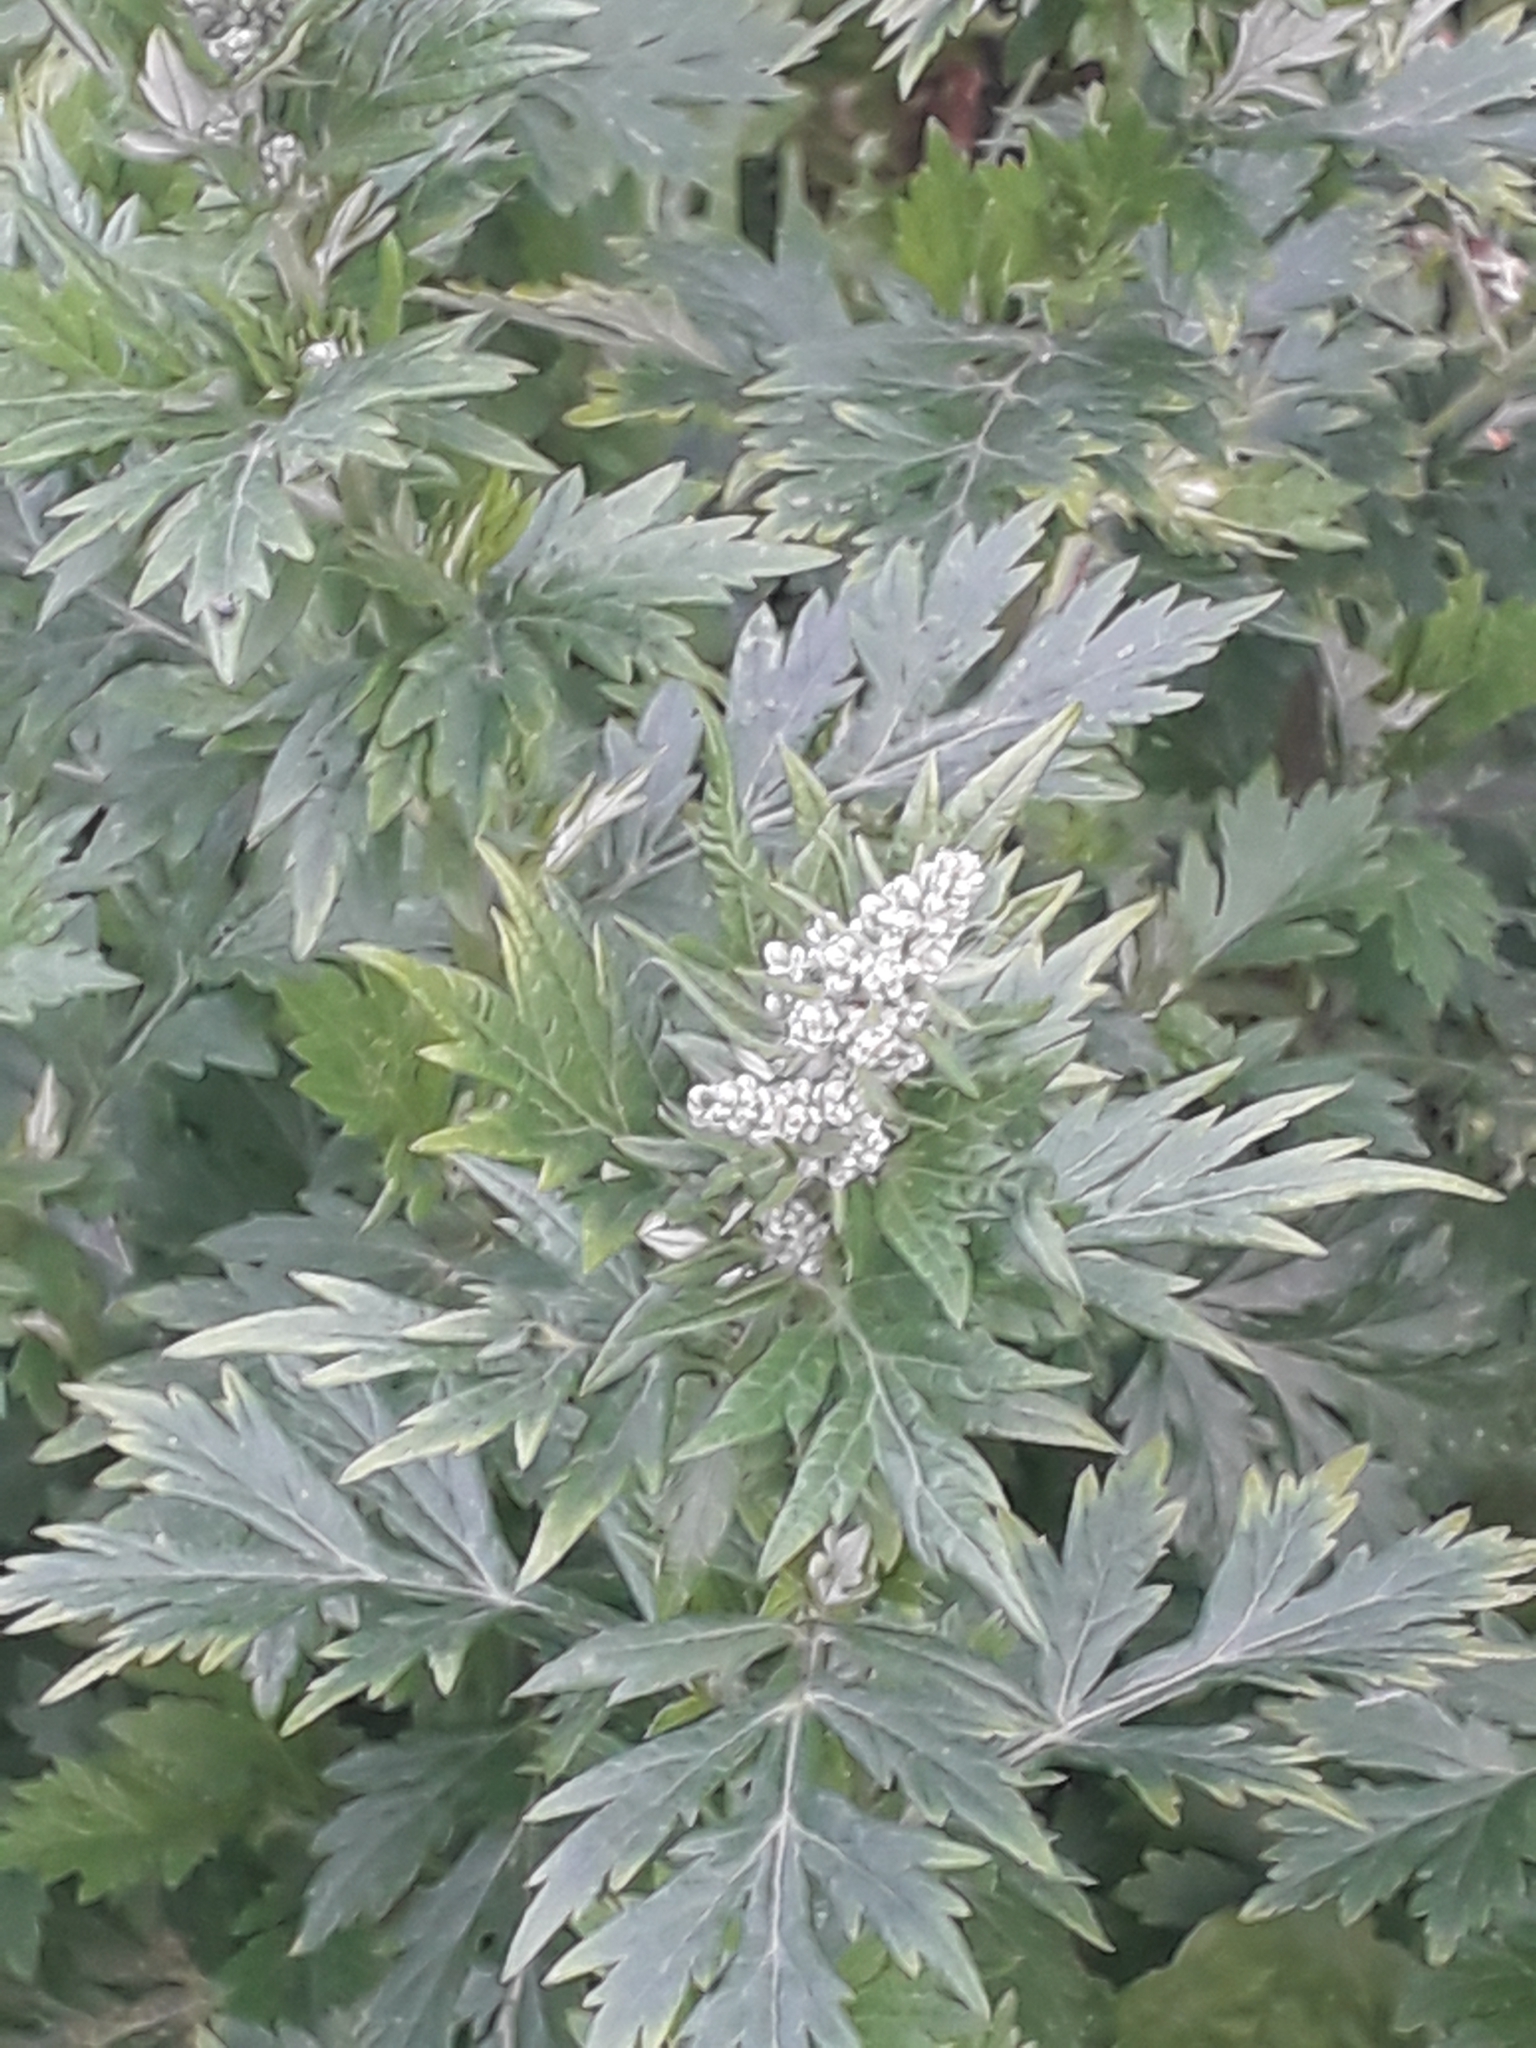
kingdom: Plantae
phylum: Tracheophyta
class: Magnoliopsida
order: Asterales
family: Asteraceae
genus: Artemisia
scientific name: Artemisia vulgaris
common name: Mugwort
